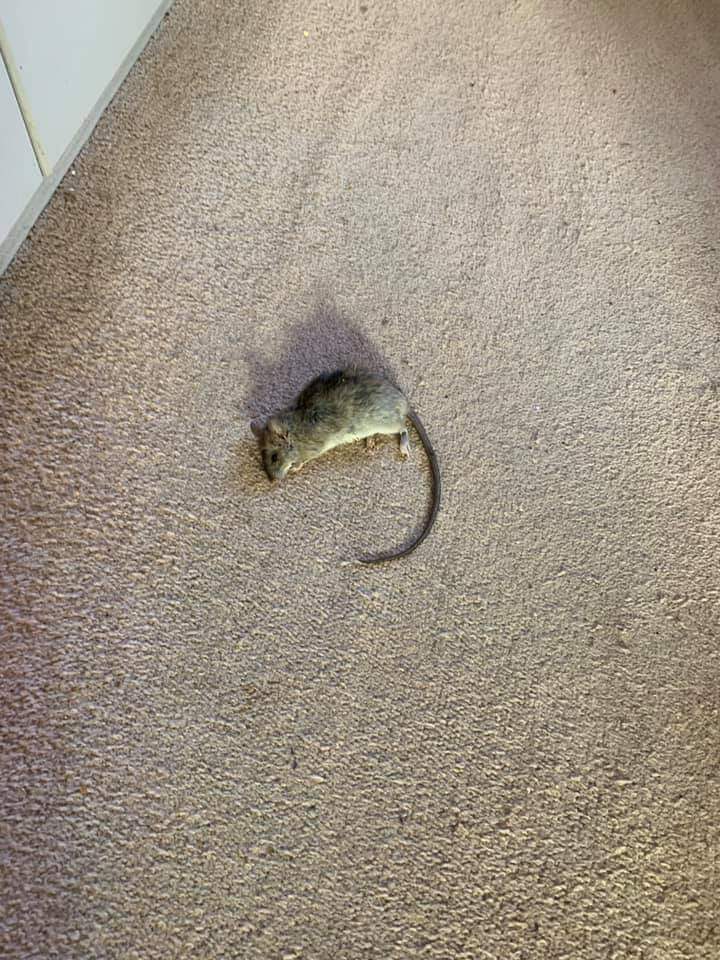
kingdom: Animalia
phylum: Chordata
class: Mammalia
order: Rodentia
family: Muridae
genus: Rattus
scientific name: Rattus rattus
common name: Black rat
